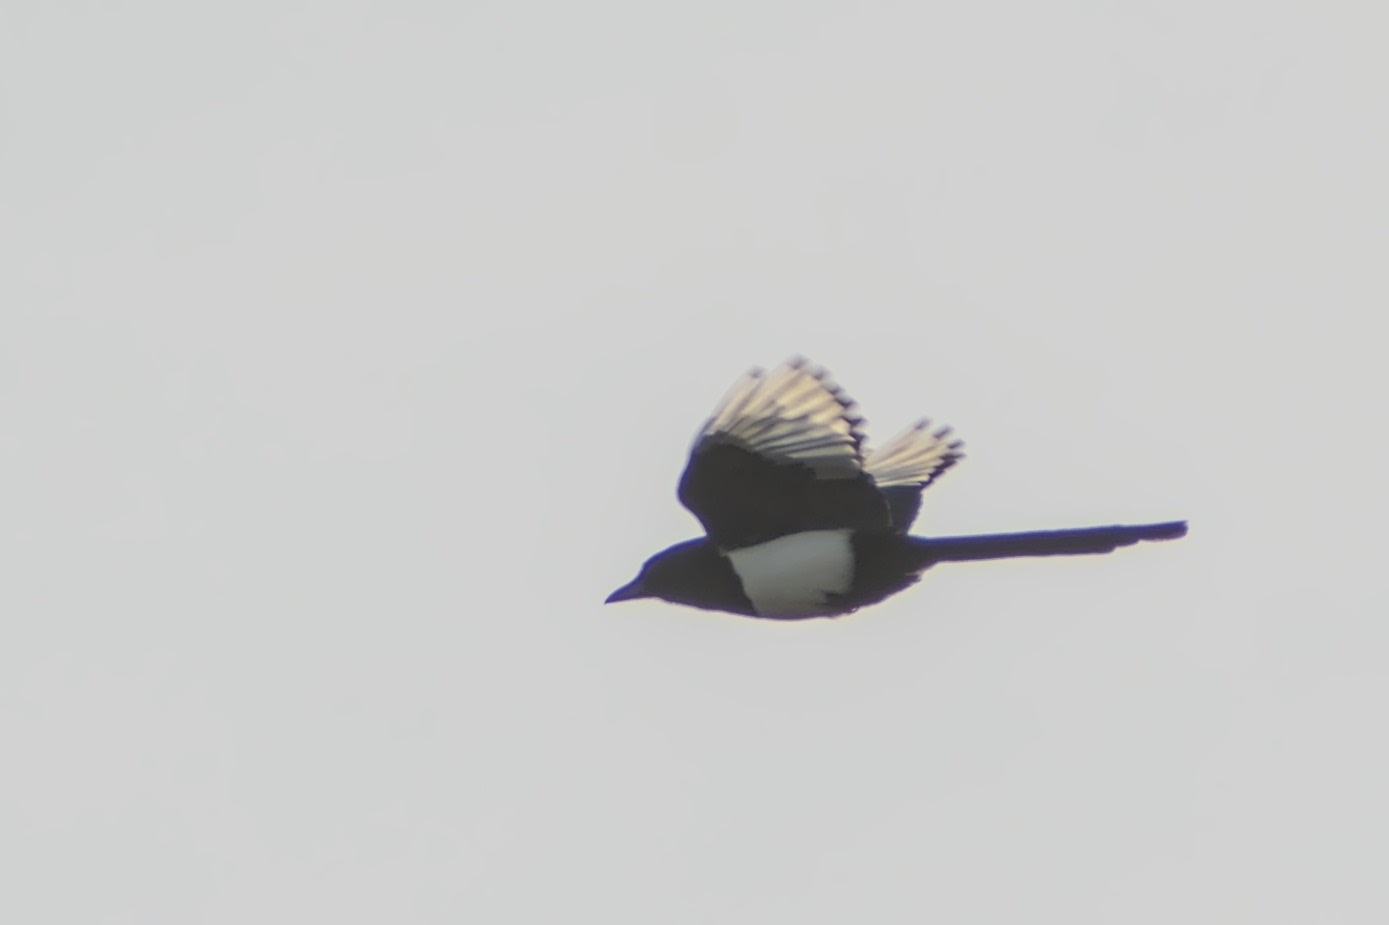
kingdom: Animalia
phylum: Chordata
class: Aves
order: Passeriformes
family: Corvidae
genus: Pica
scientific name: Pica pica
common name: Eurasian magpie
